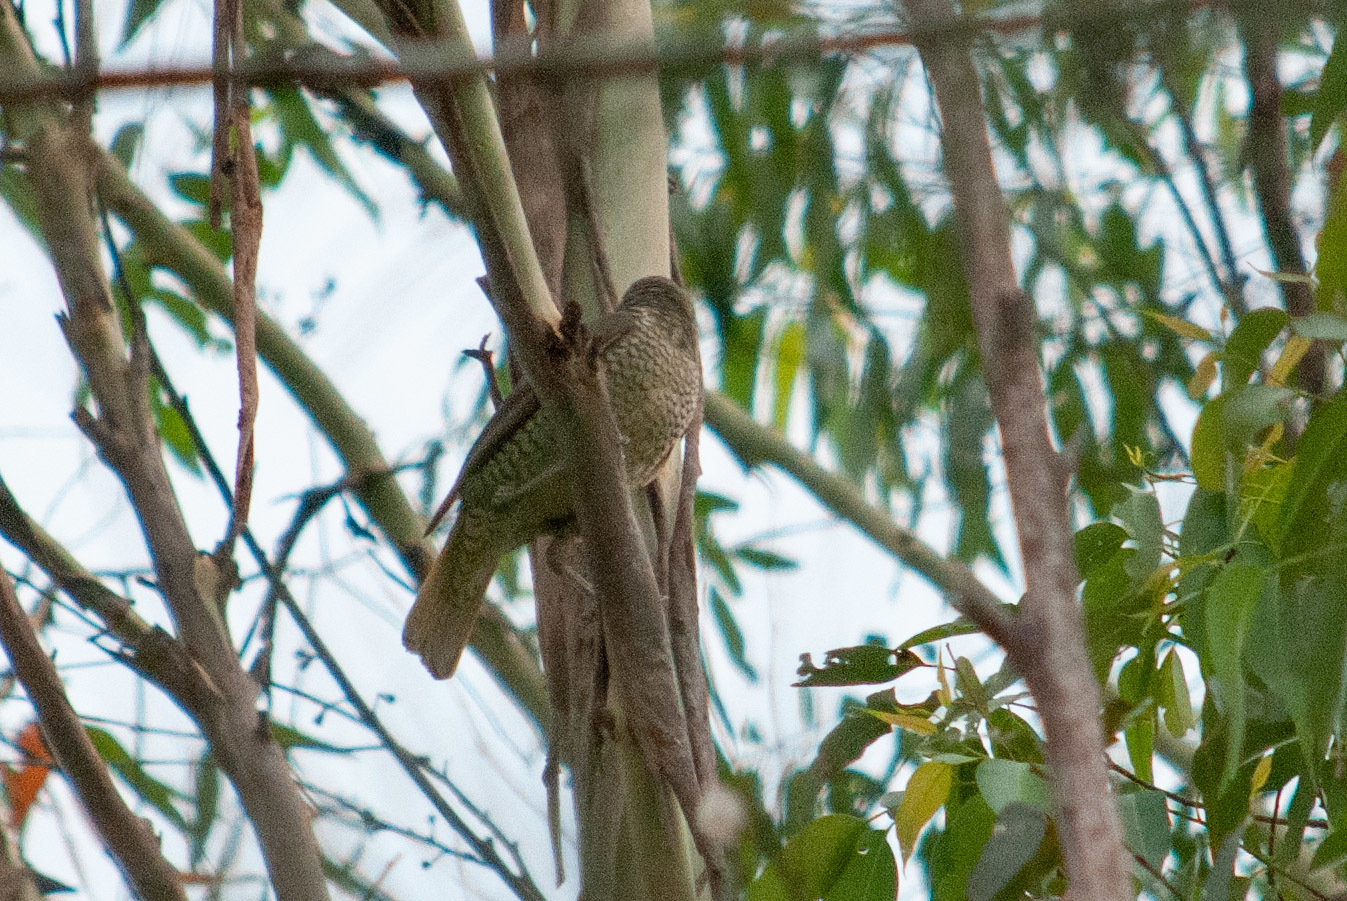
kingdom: Animalia
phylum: Chordata
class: Aves
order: Passeriformes
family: Ptilonorhynchidae
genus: Ptilonorhynchus
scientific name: Ptilonorhynchus violaceus
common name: Satin bowerbird
